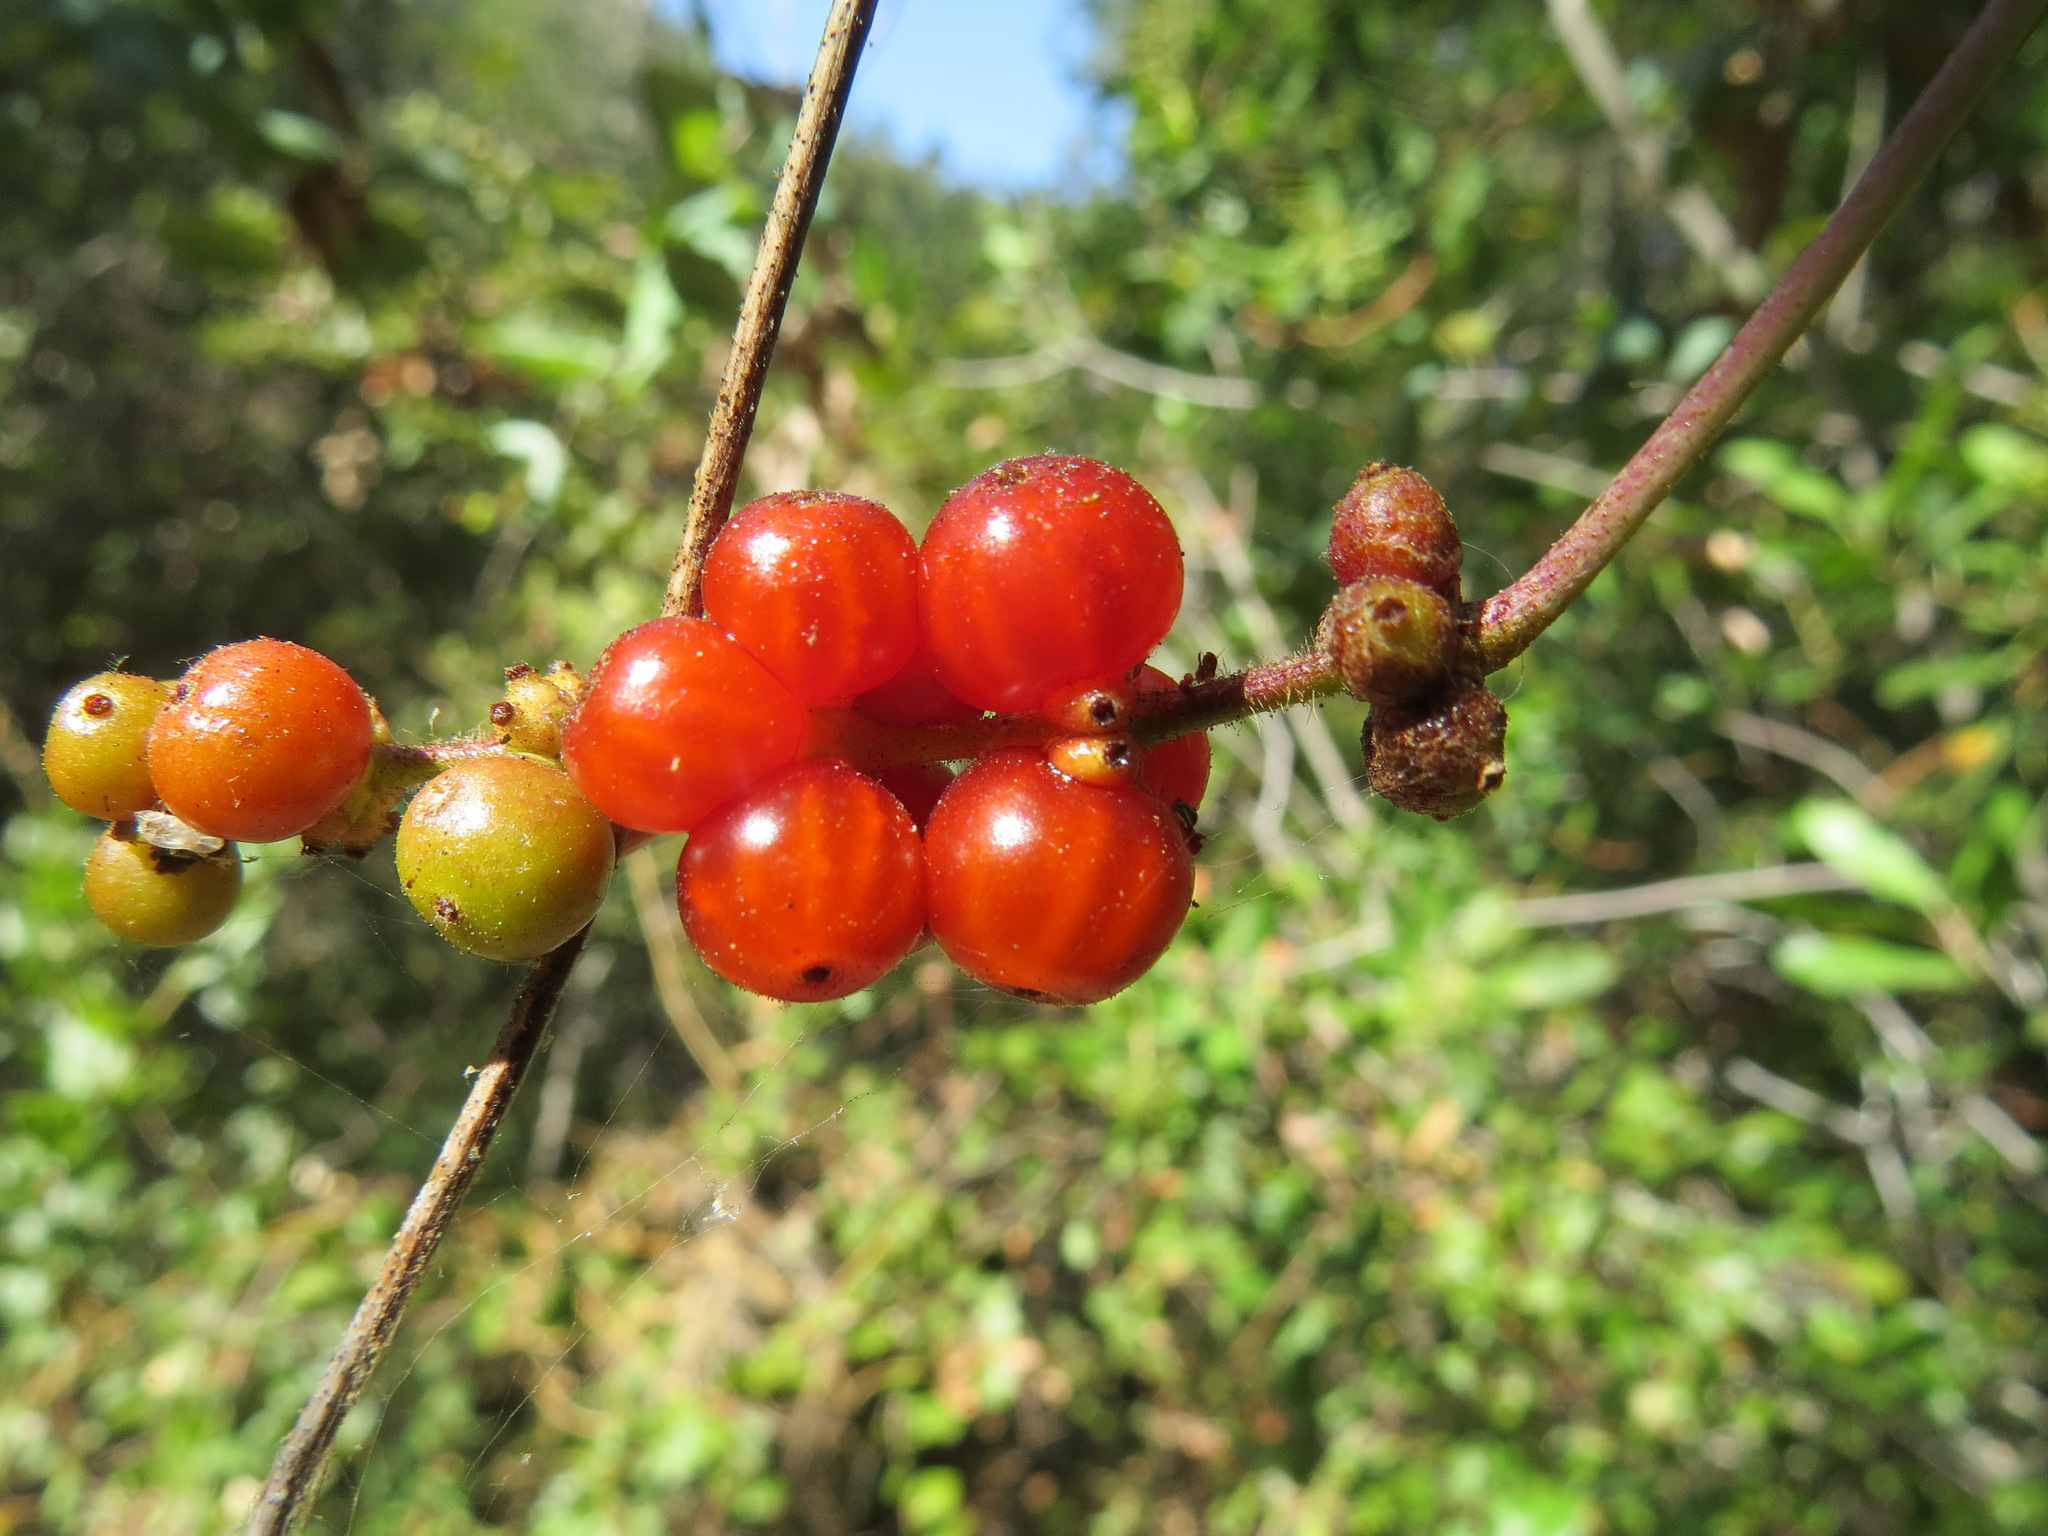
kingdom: Plantae
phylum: Tracheophyta
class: Magnoliopsida
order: Dipsacales
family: Caprifoliaceae
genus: Lonicera
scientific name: Lonicera hispidula
